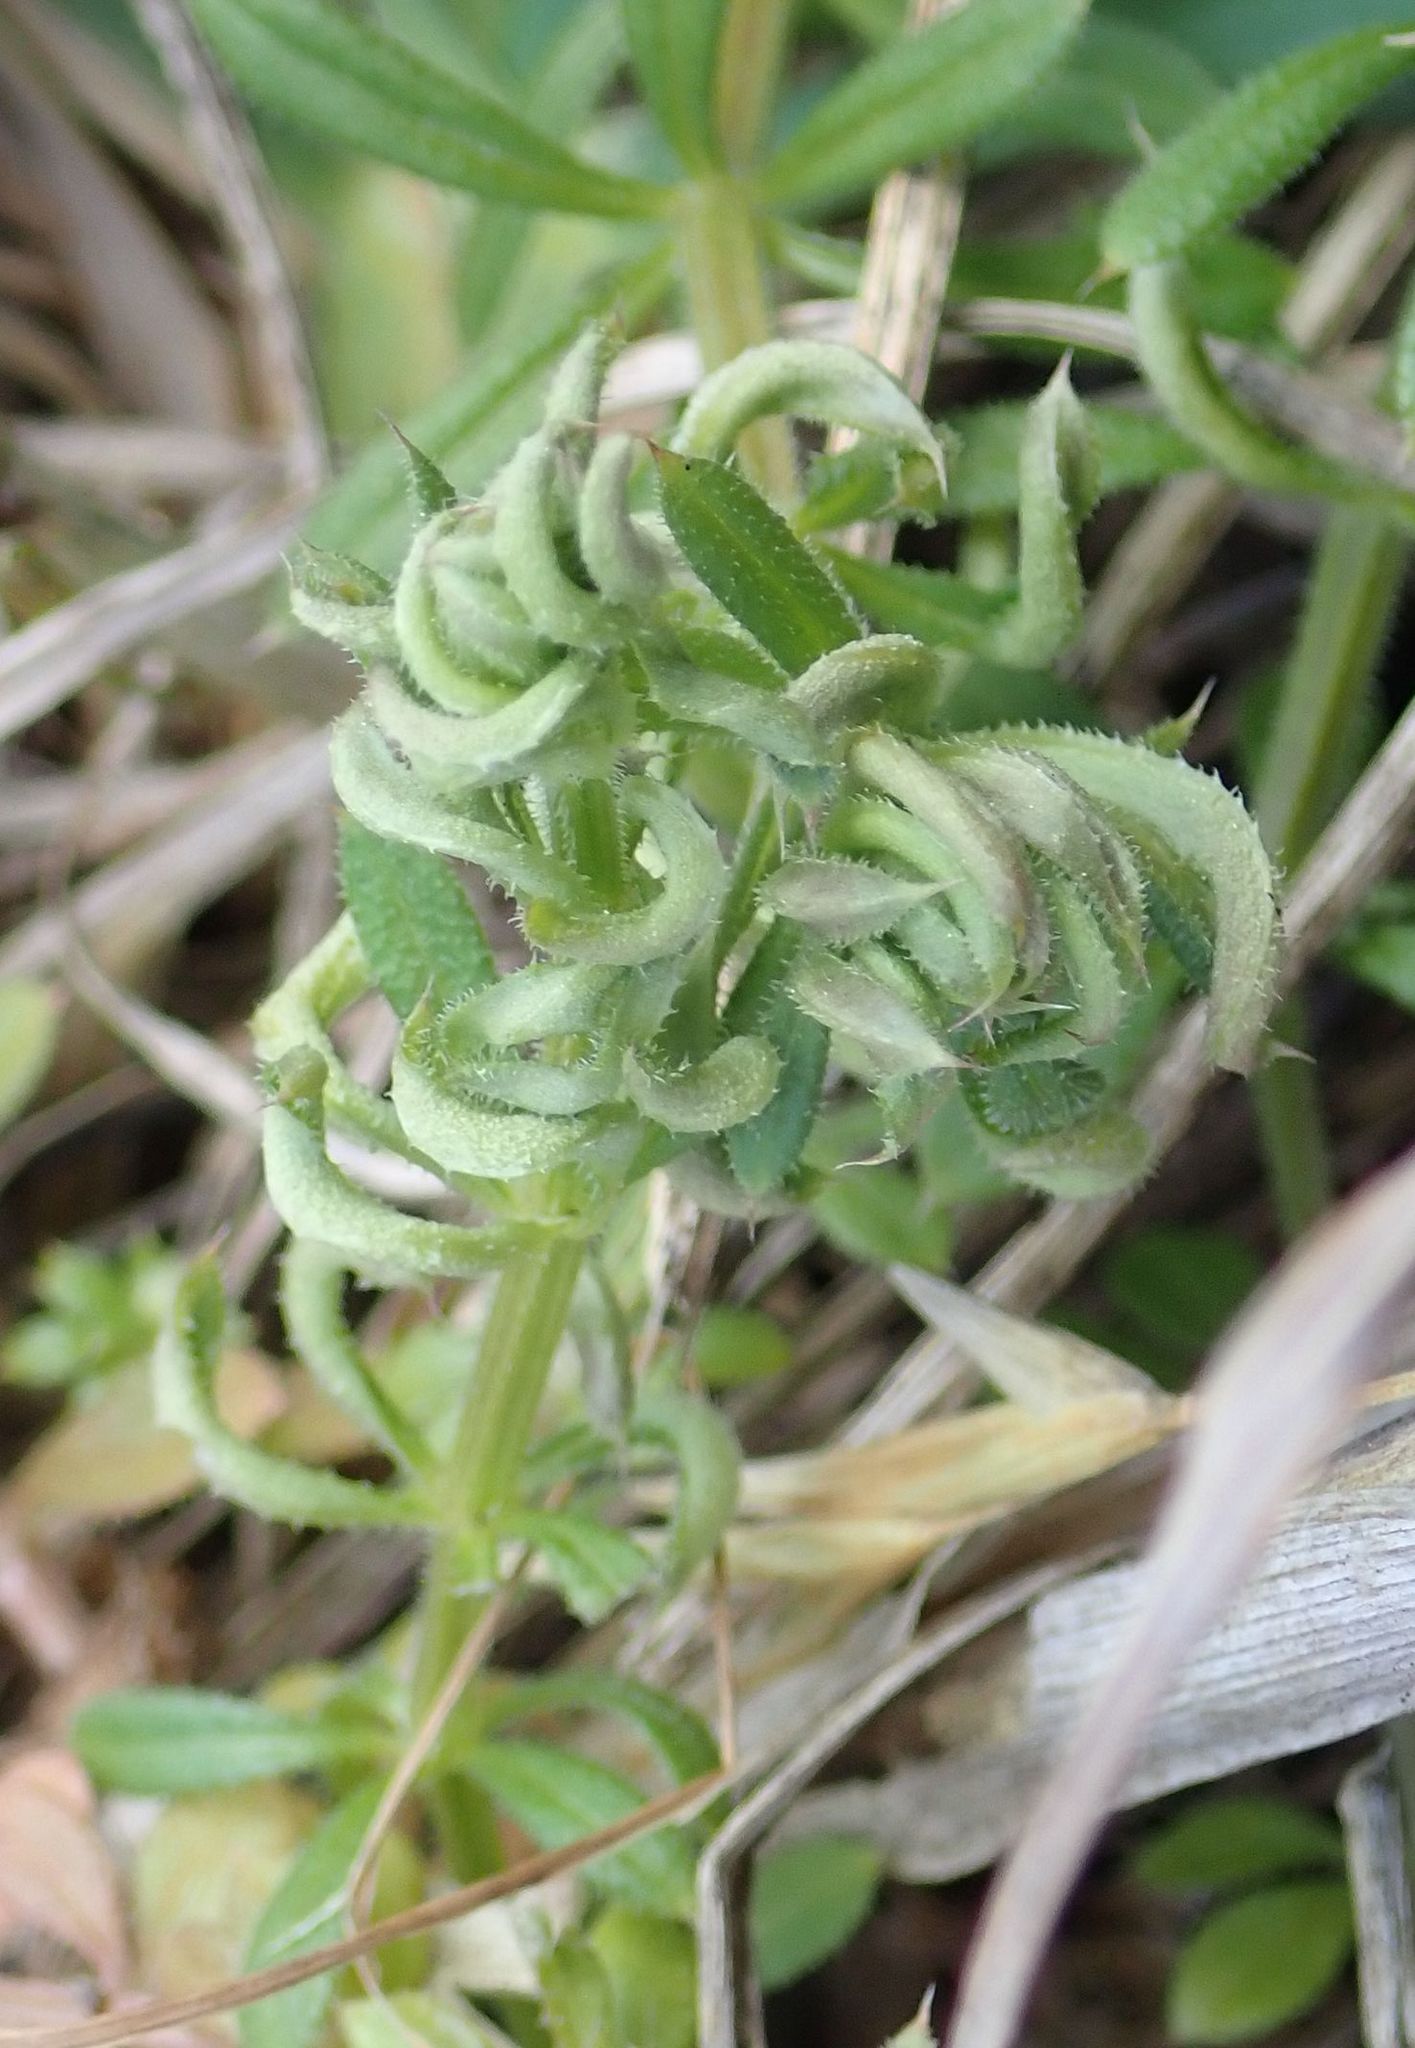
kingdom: Animalia
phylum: Arthropoda
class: Arachnida
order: Trombidiformes
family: Eriophyidae
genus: Cecidophyes
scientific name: Cecidophyes rouhollahi
